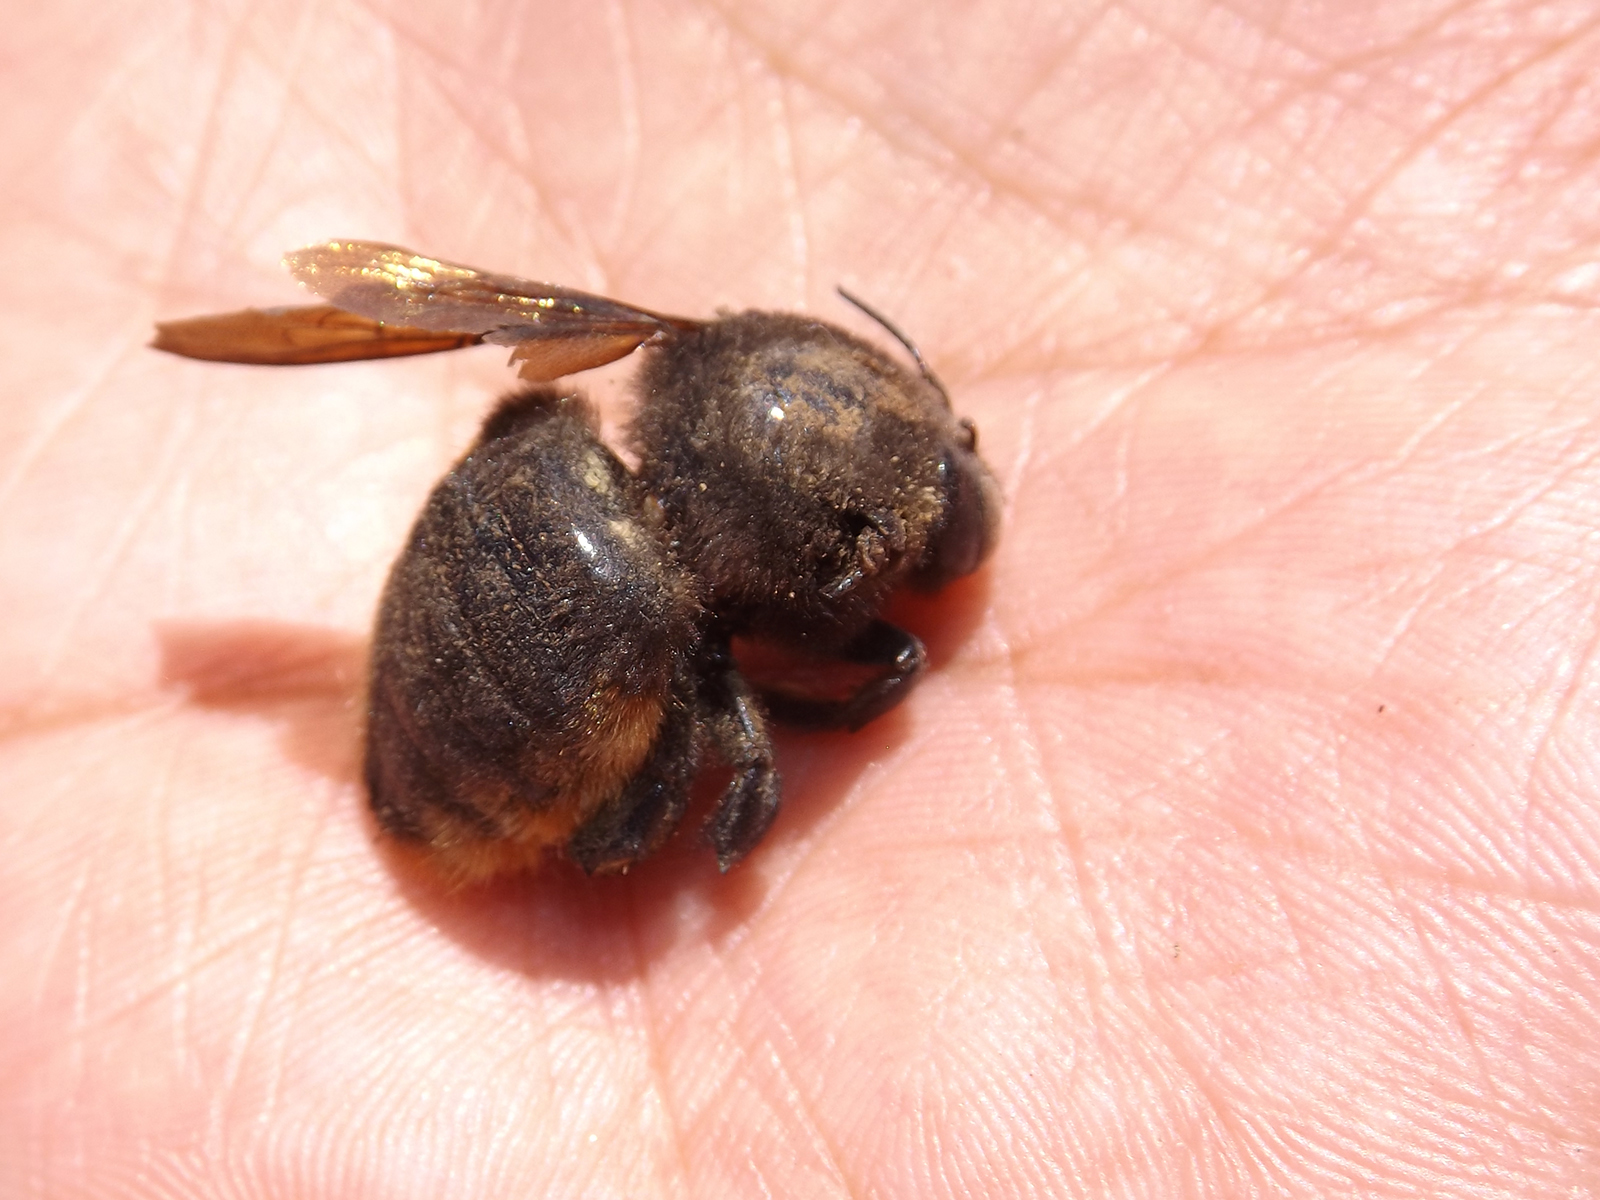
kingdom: Animalia
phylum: Arthropoda
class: Insecta
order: Hymenoptera
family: Apidae
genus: Xylocopa
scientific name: Xylocopa augusti
